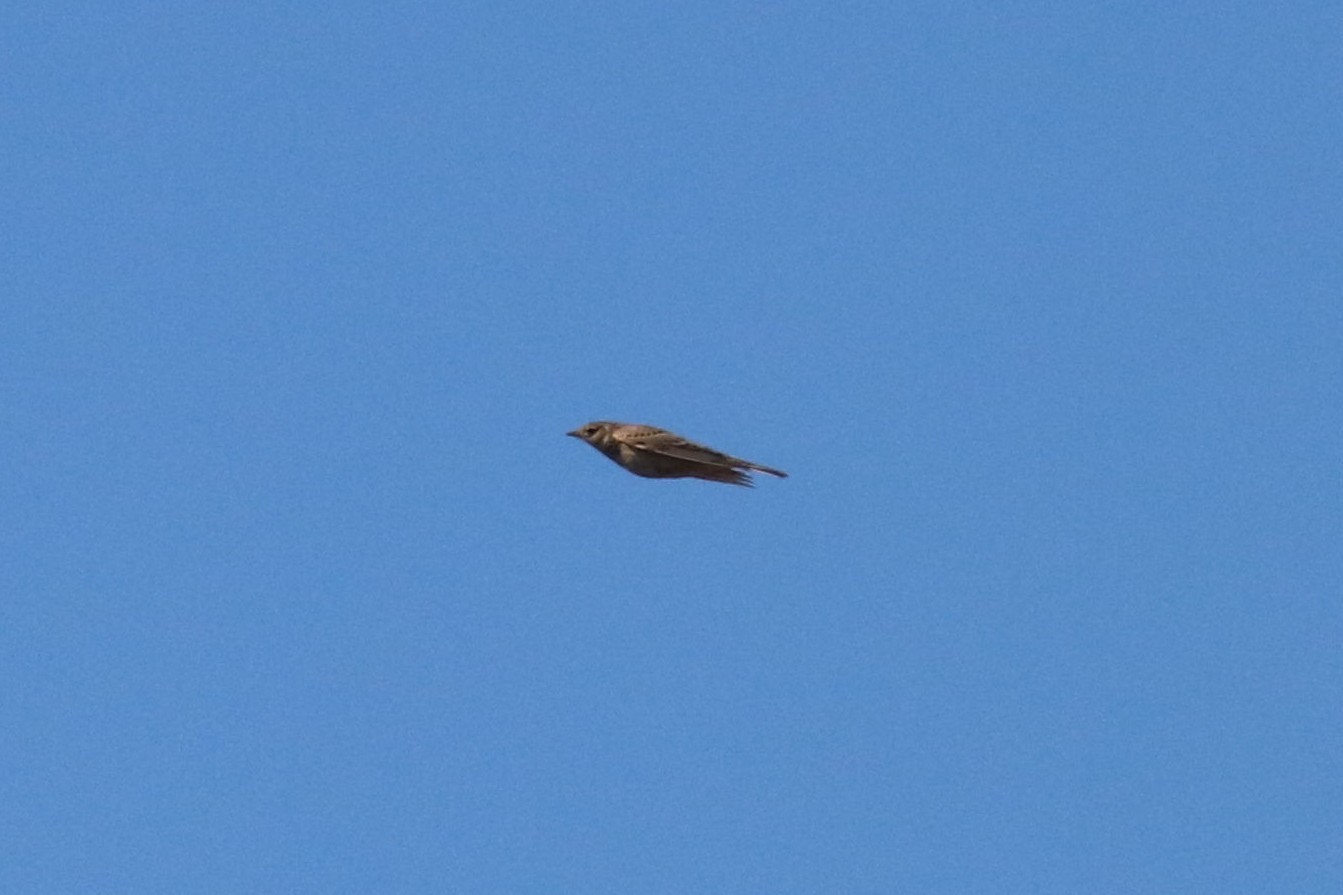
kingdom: Animalia
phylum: Chordata
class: Aves
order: Passeriformes
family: Alaudidae
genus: Alauda
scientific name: Alauda arvensis
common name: Eurasian skylark
